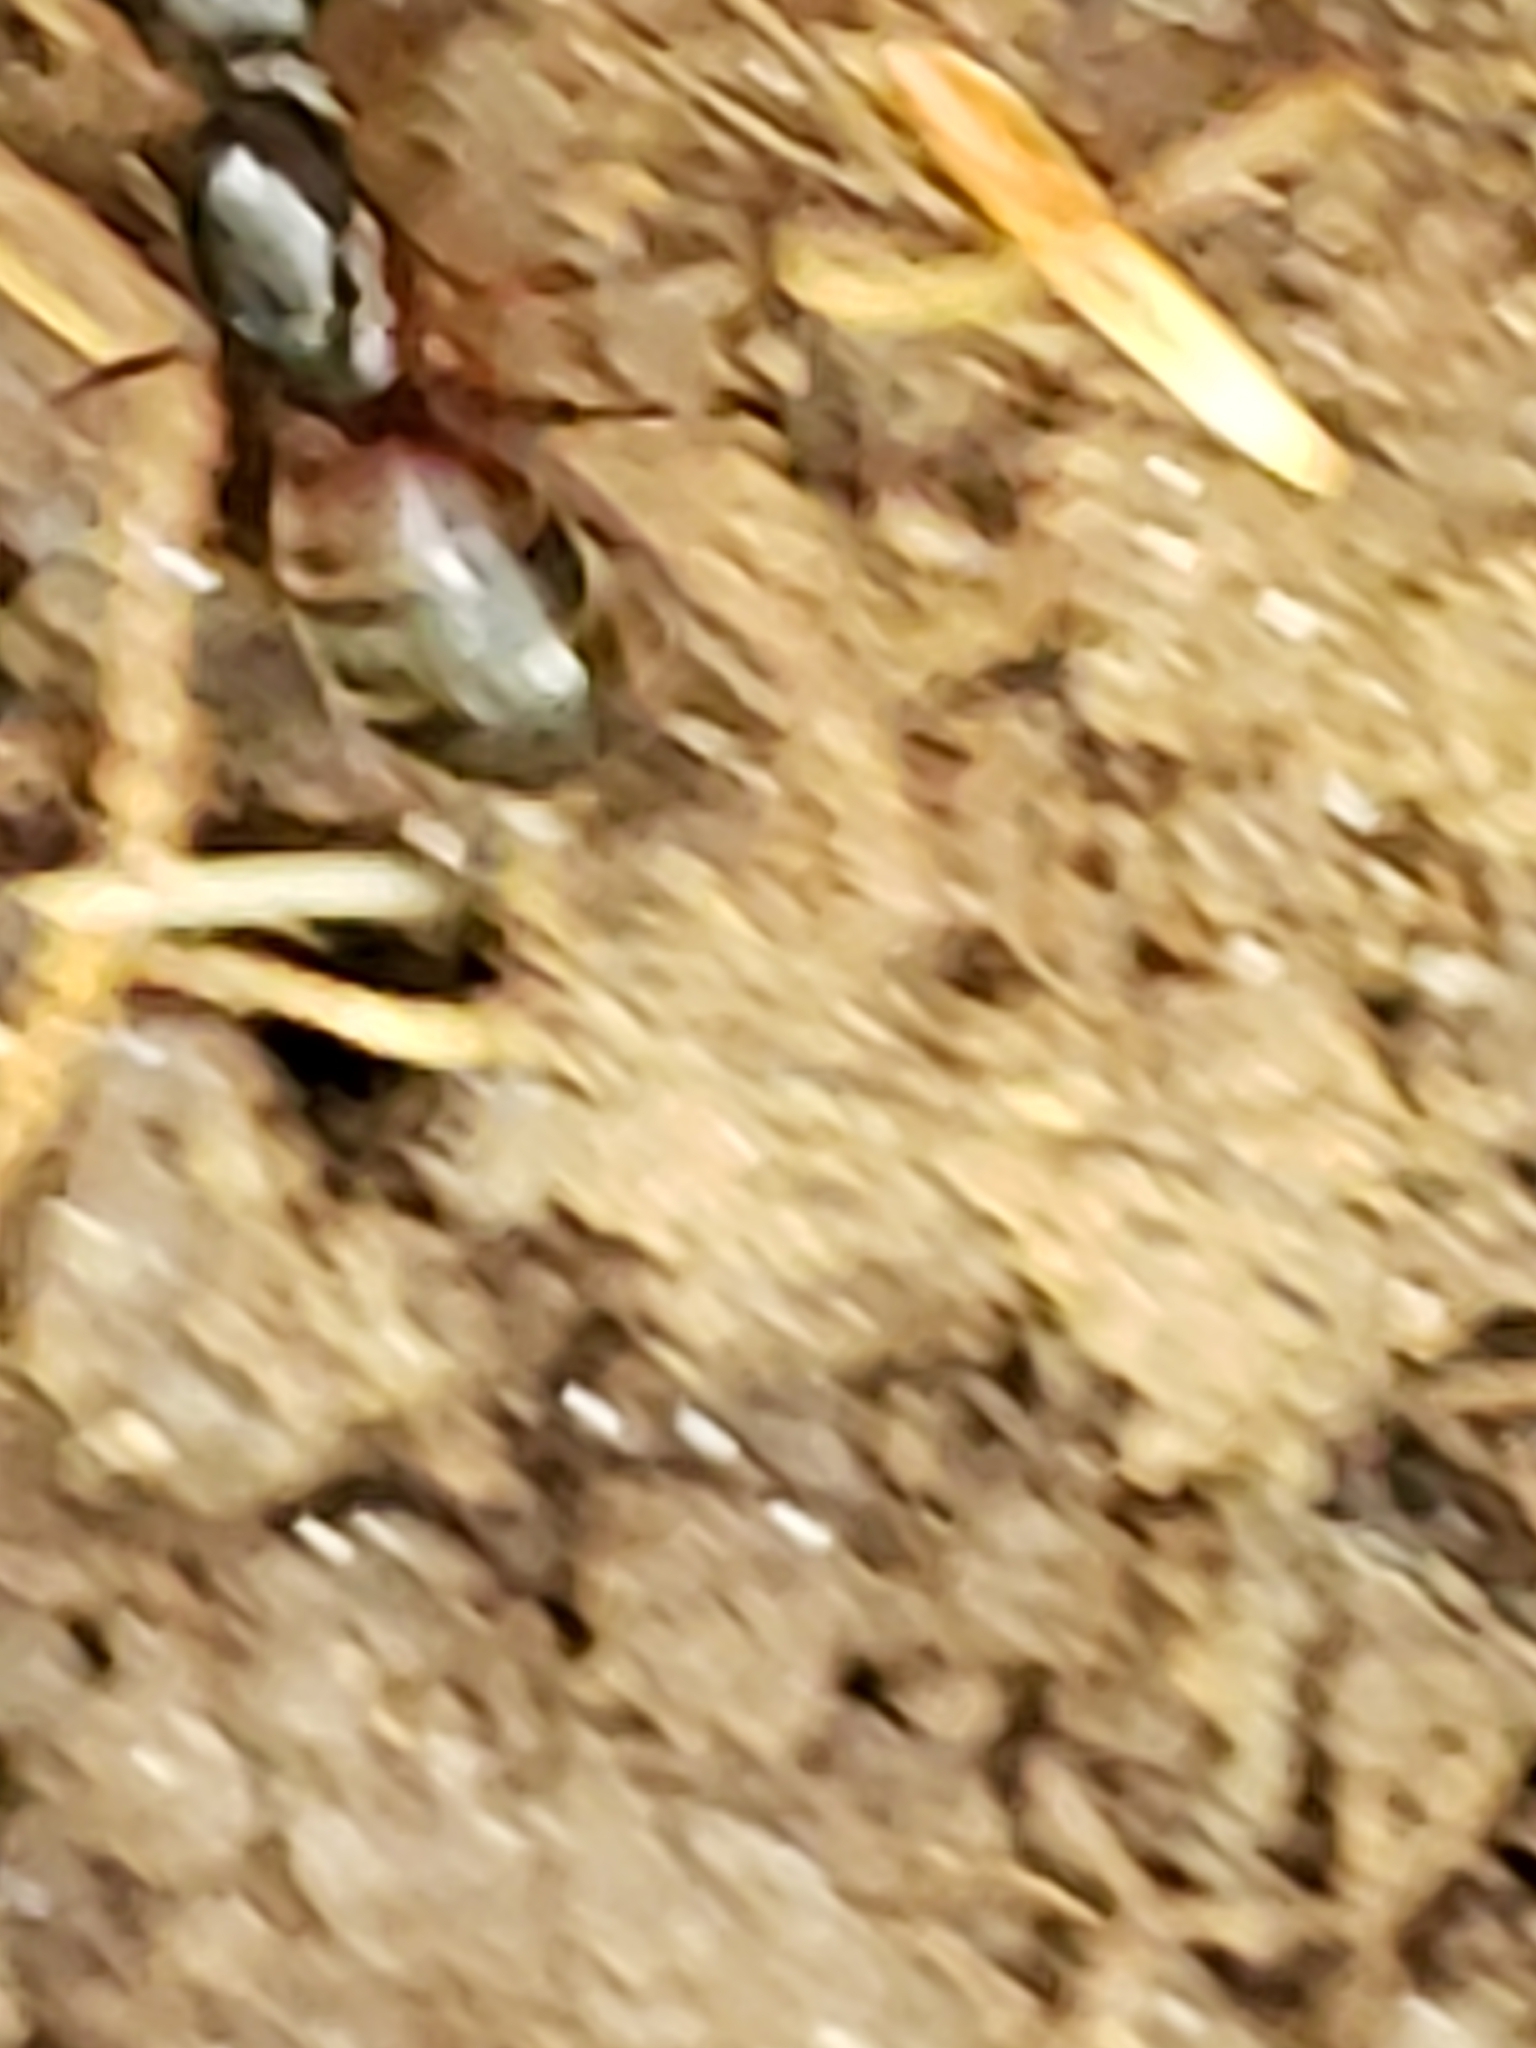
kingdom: Animalia
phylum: Arthropoda
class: Insecta
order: Hymenoptera
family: Formicidae
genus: Camponotus
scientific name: Camponotus chromaiodes
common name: Red carpenter ant
